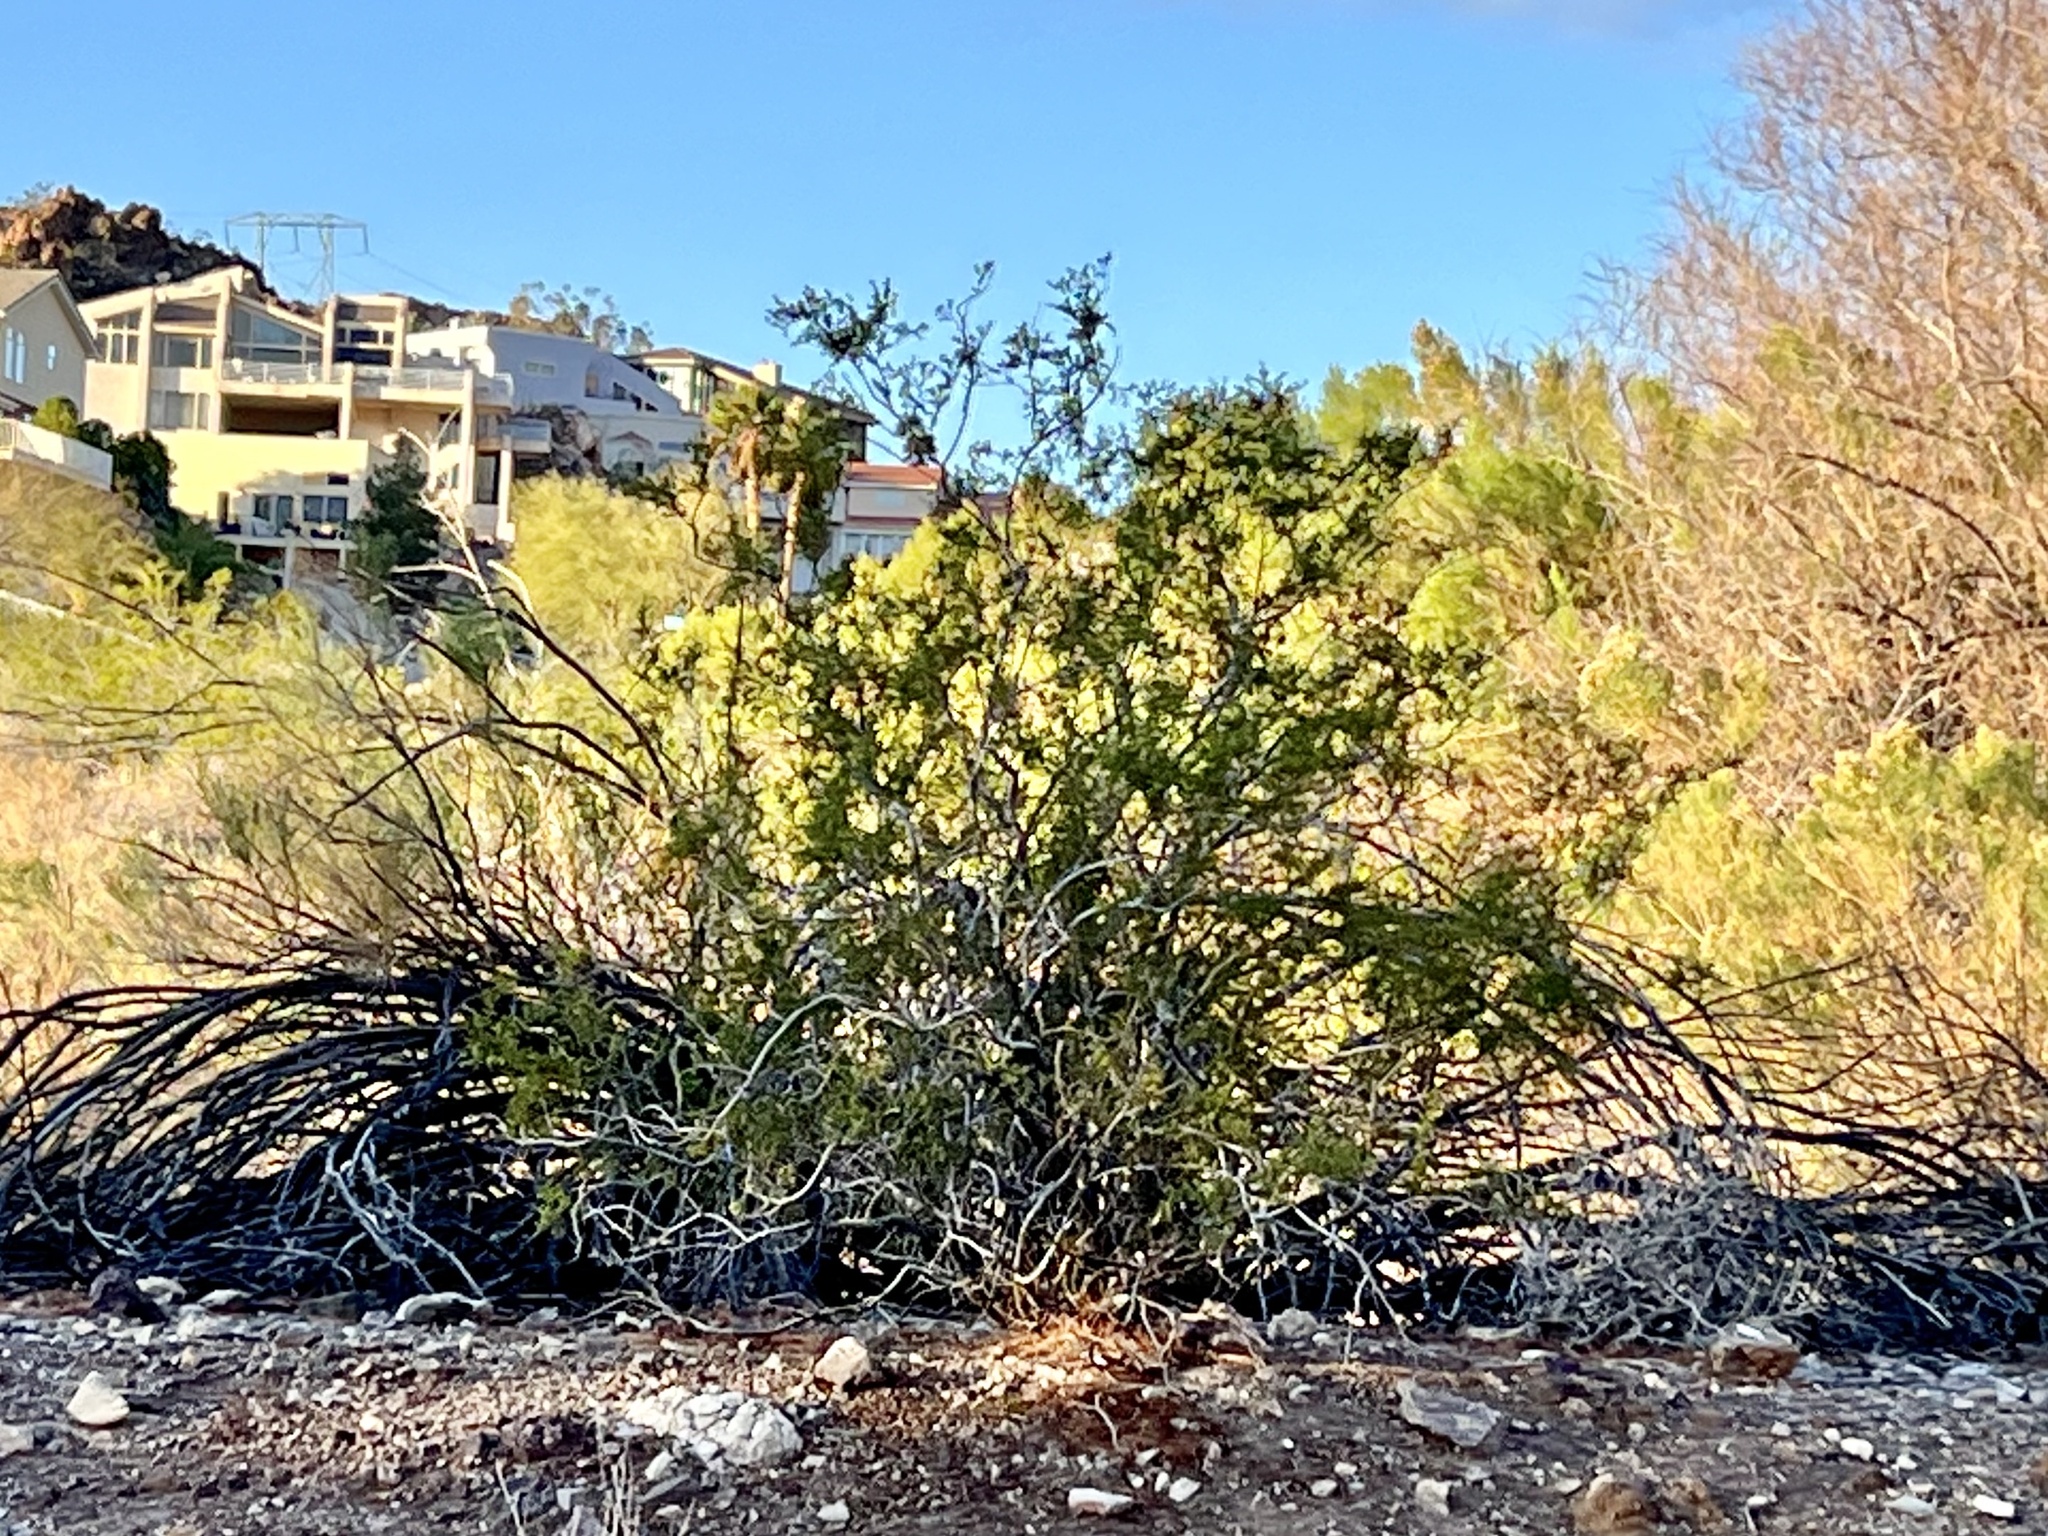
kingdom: Plantae
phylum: Tracheophyta
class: Magnoliopsida
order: Zygophyllales
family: Zygophyllaceae
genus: Larrea
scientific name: Larrea tridentata
